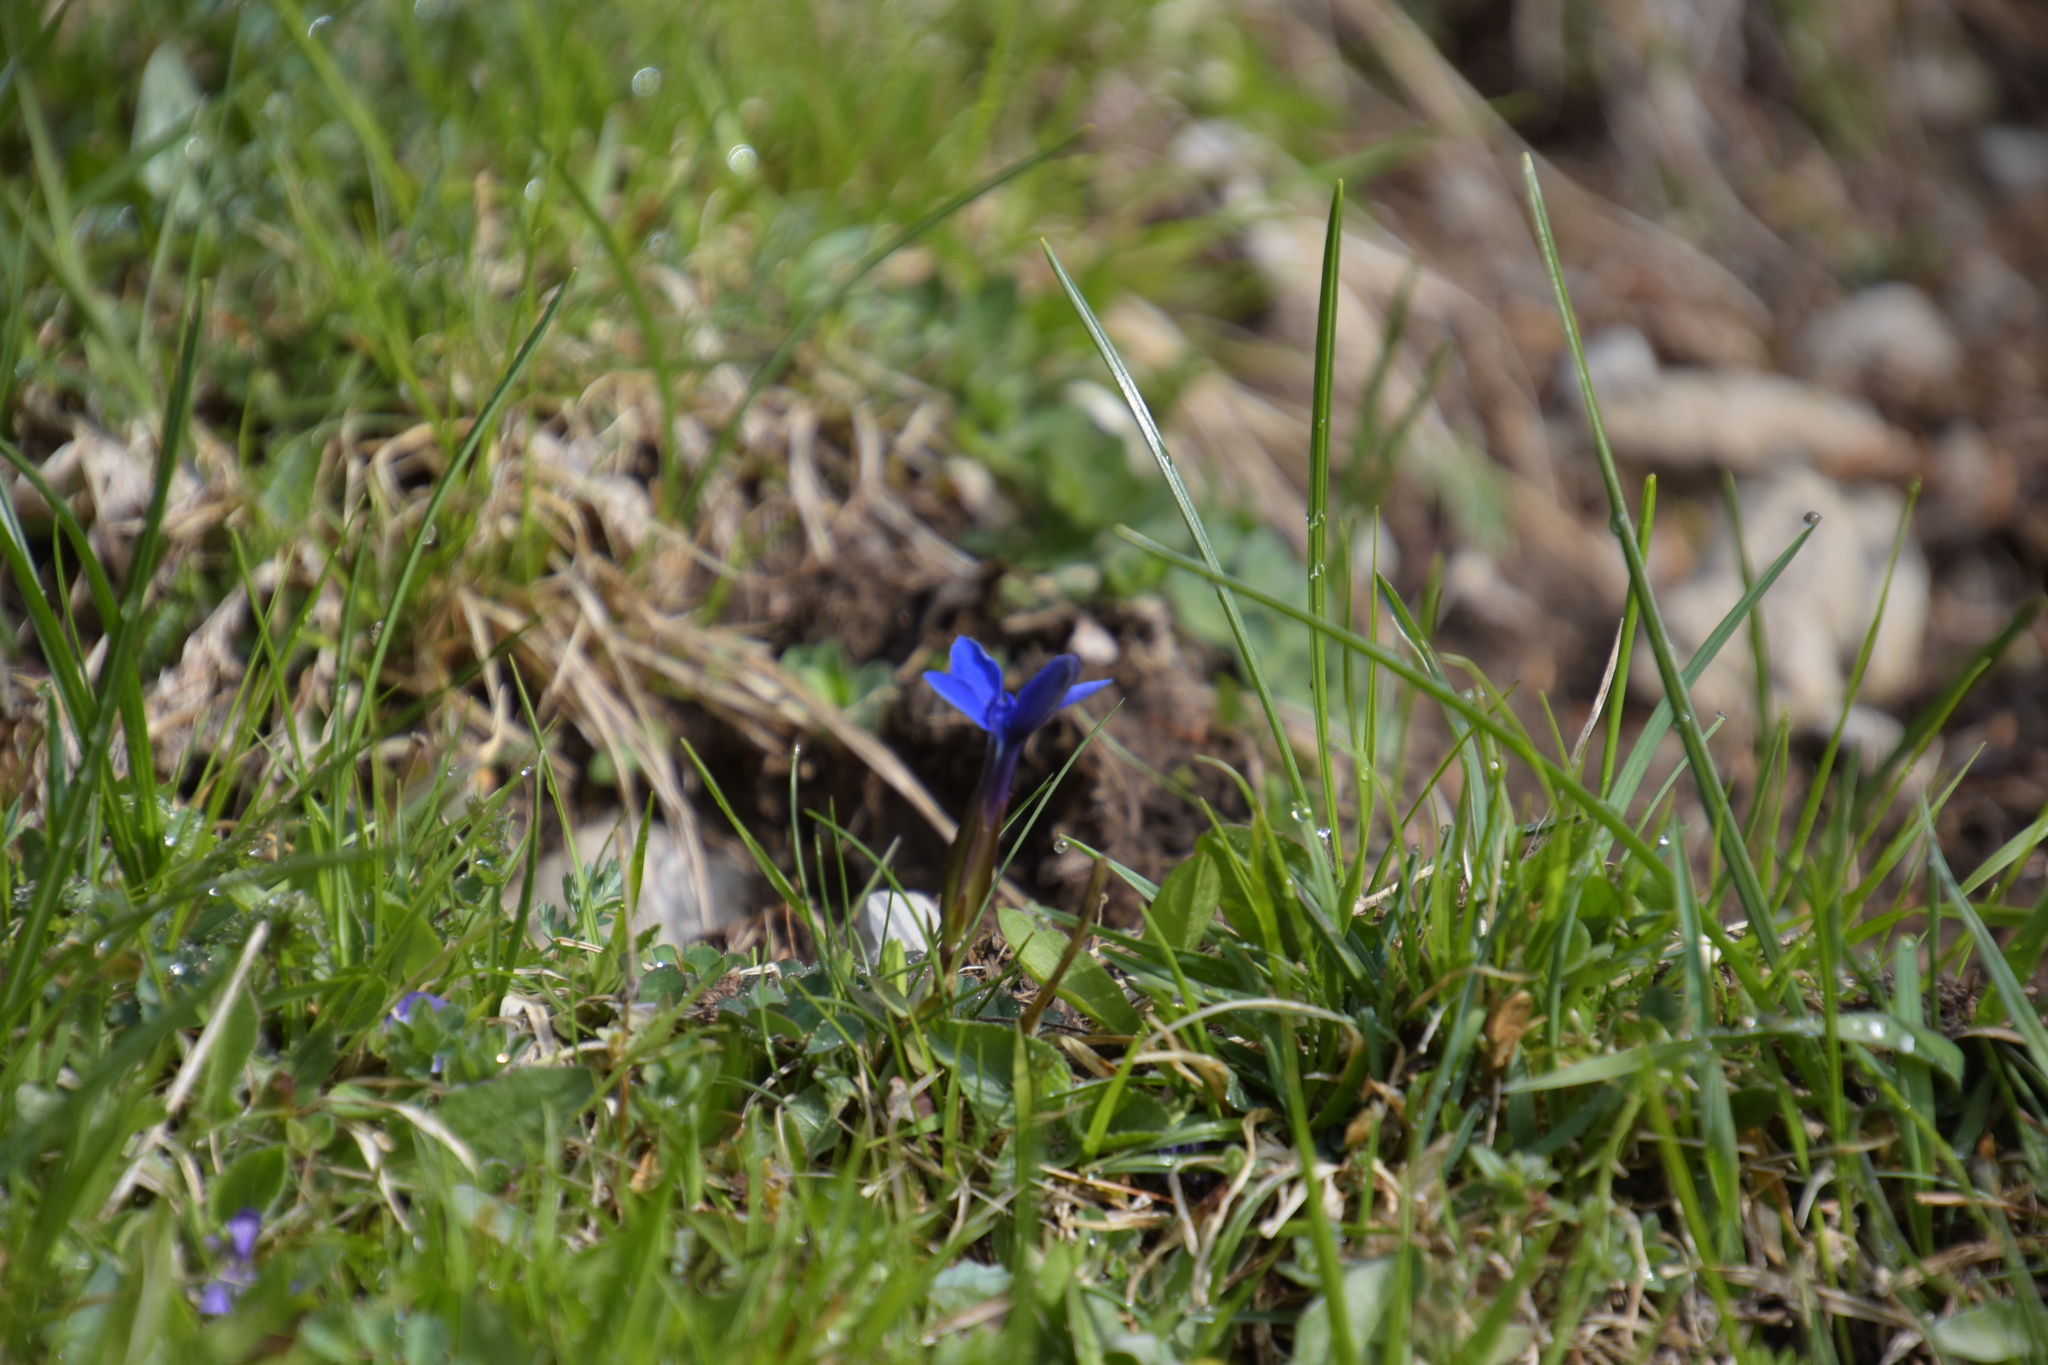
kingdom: Plantae
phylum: Tracheophyta
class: Magnoliopsida
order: Gentianales
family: Gentianaceae
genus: Gentiana
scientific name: Gentiana verna
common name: Spring gentian
